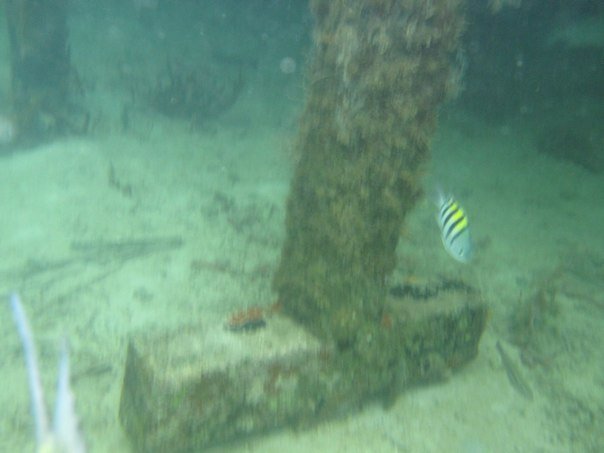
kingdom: Animalia
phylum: Chordata
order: Perciformes
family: Pomacentridae
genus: Abudefduf
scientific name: Abudefduf saxatilis
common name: Sergeant major
